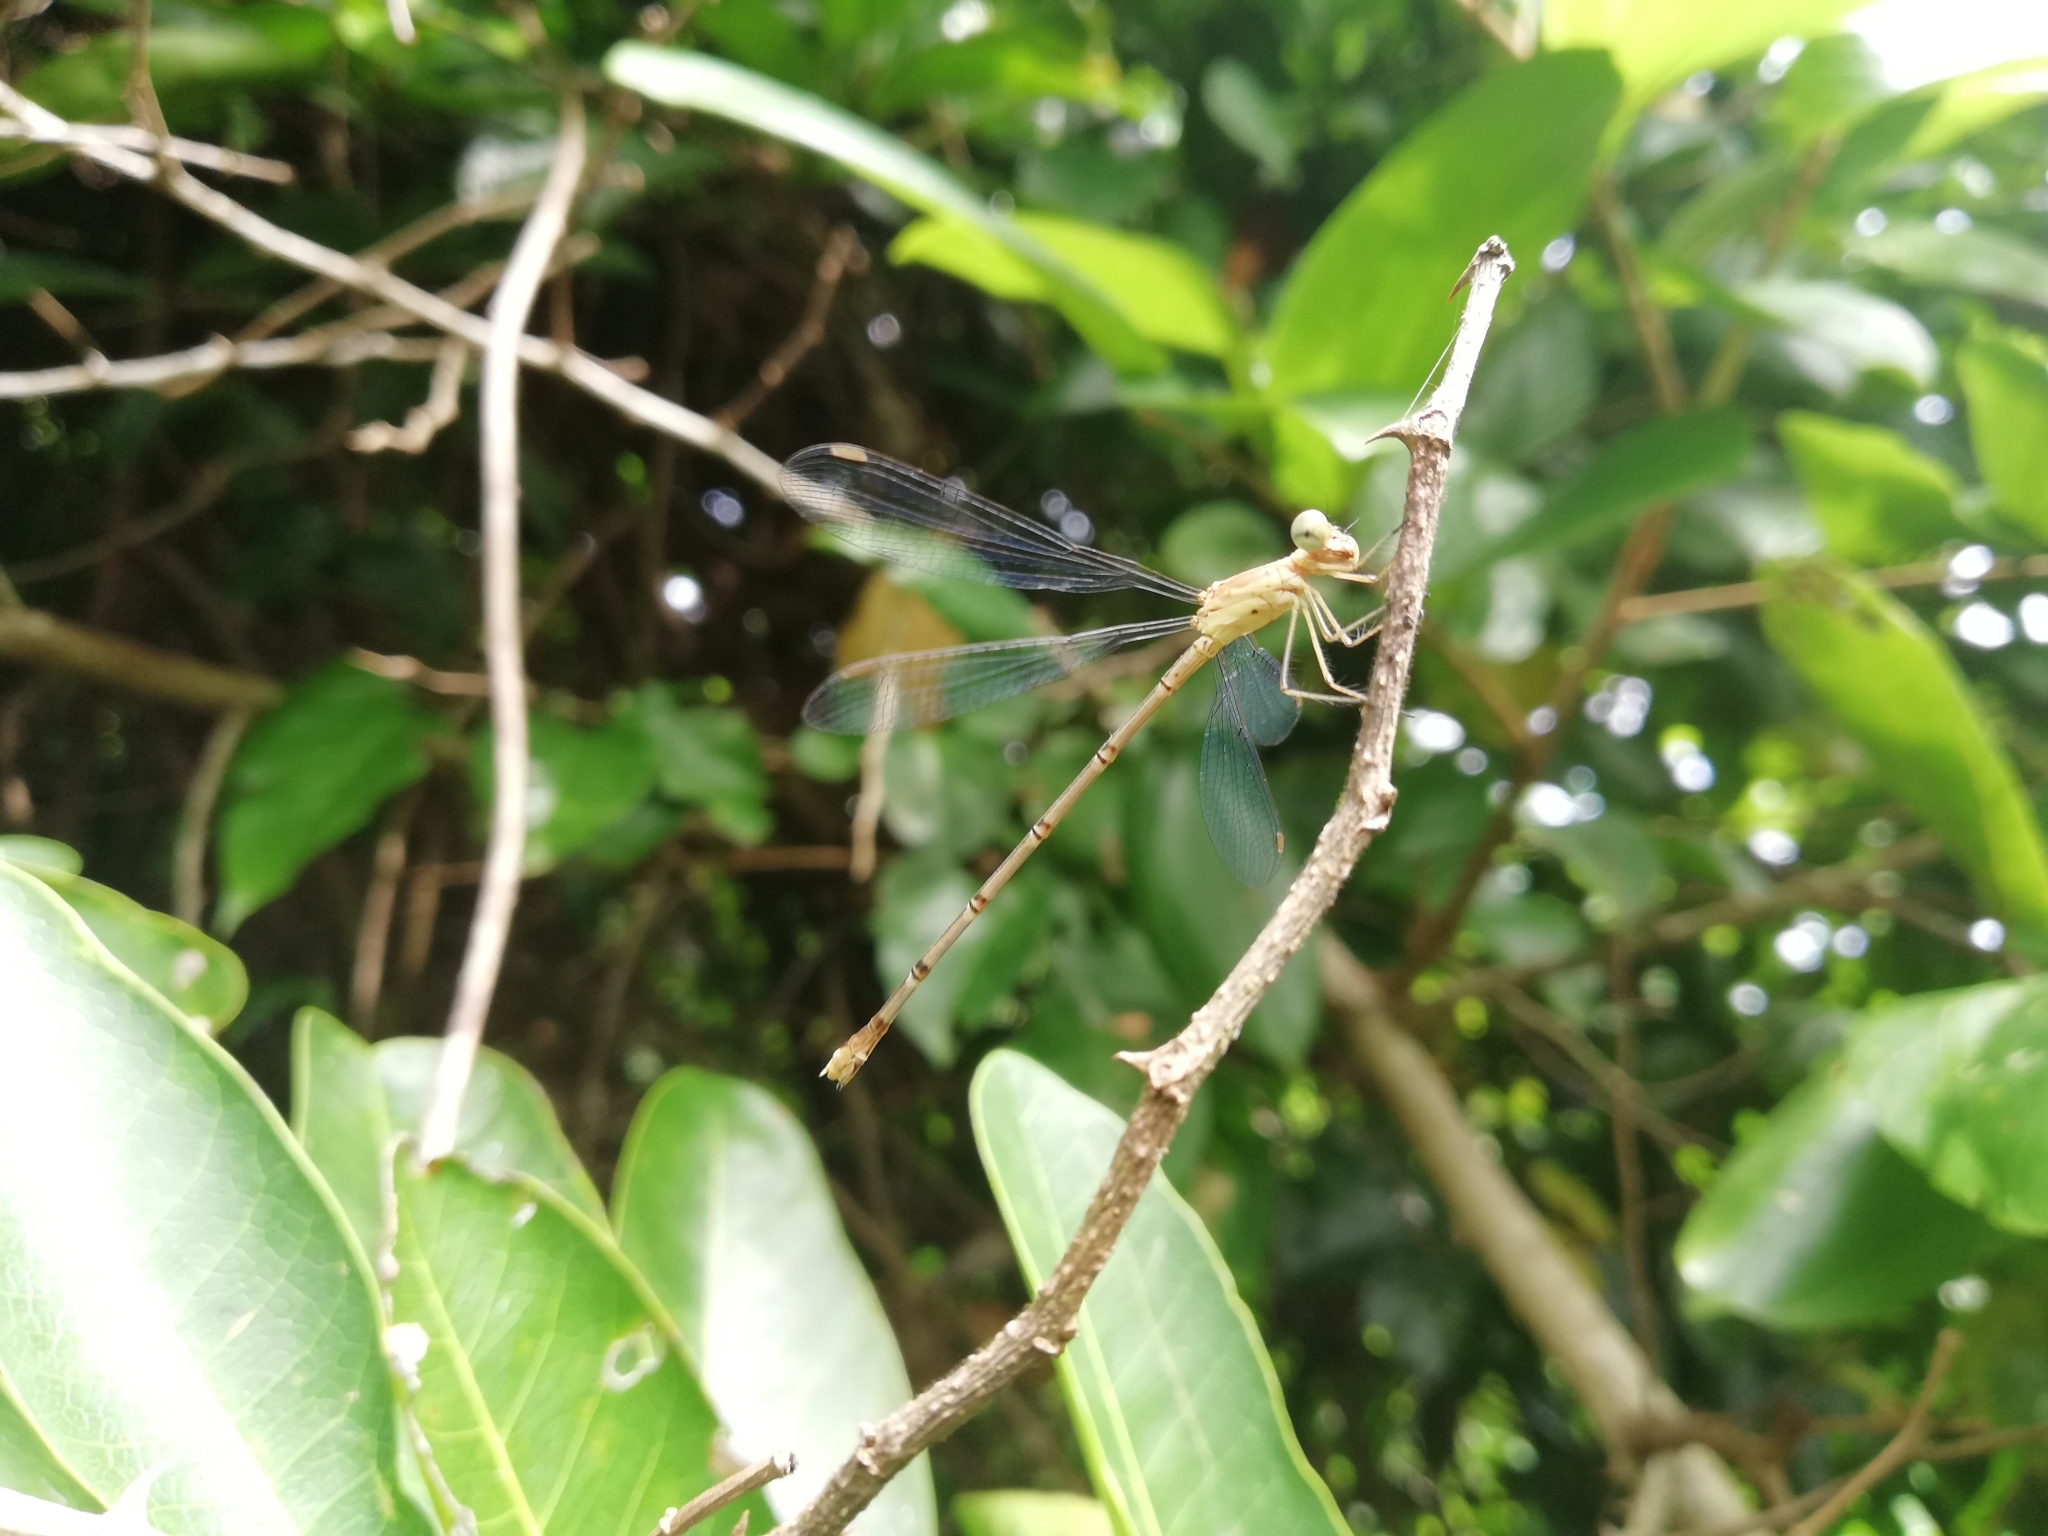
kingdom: Animalia
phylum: Arthropoda
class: Insecta
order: Odonata
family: Lestidae
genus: Lestes
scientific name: Lestes concinnus
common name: Dusky spreadwing
